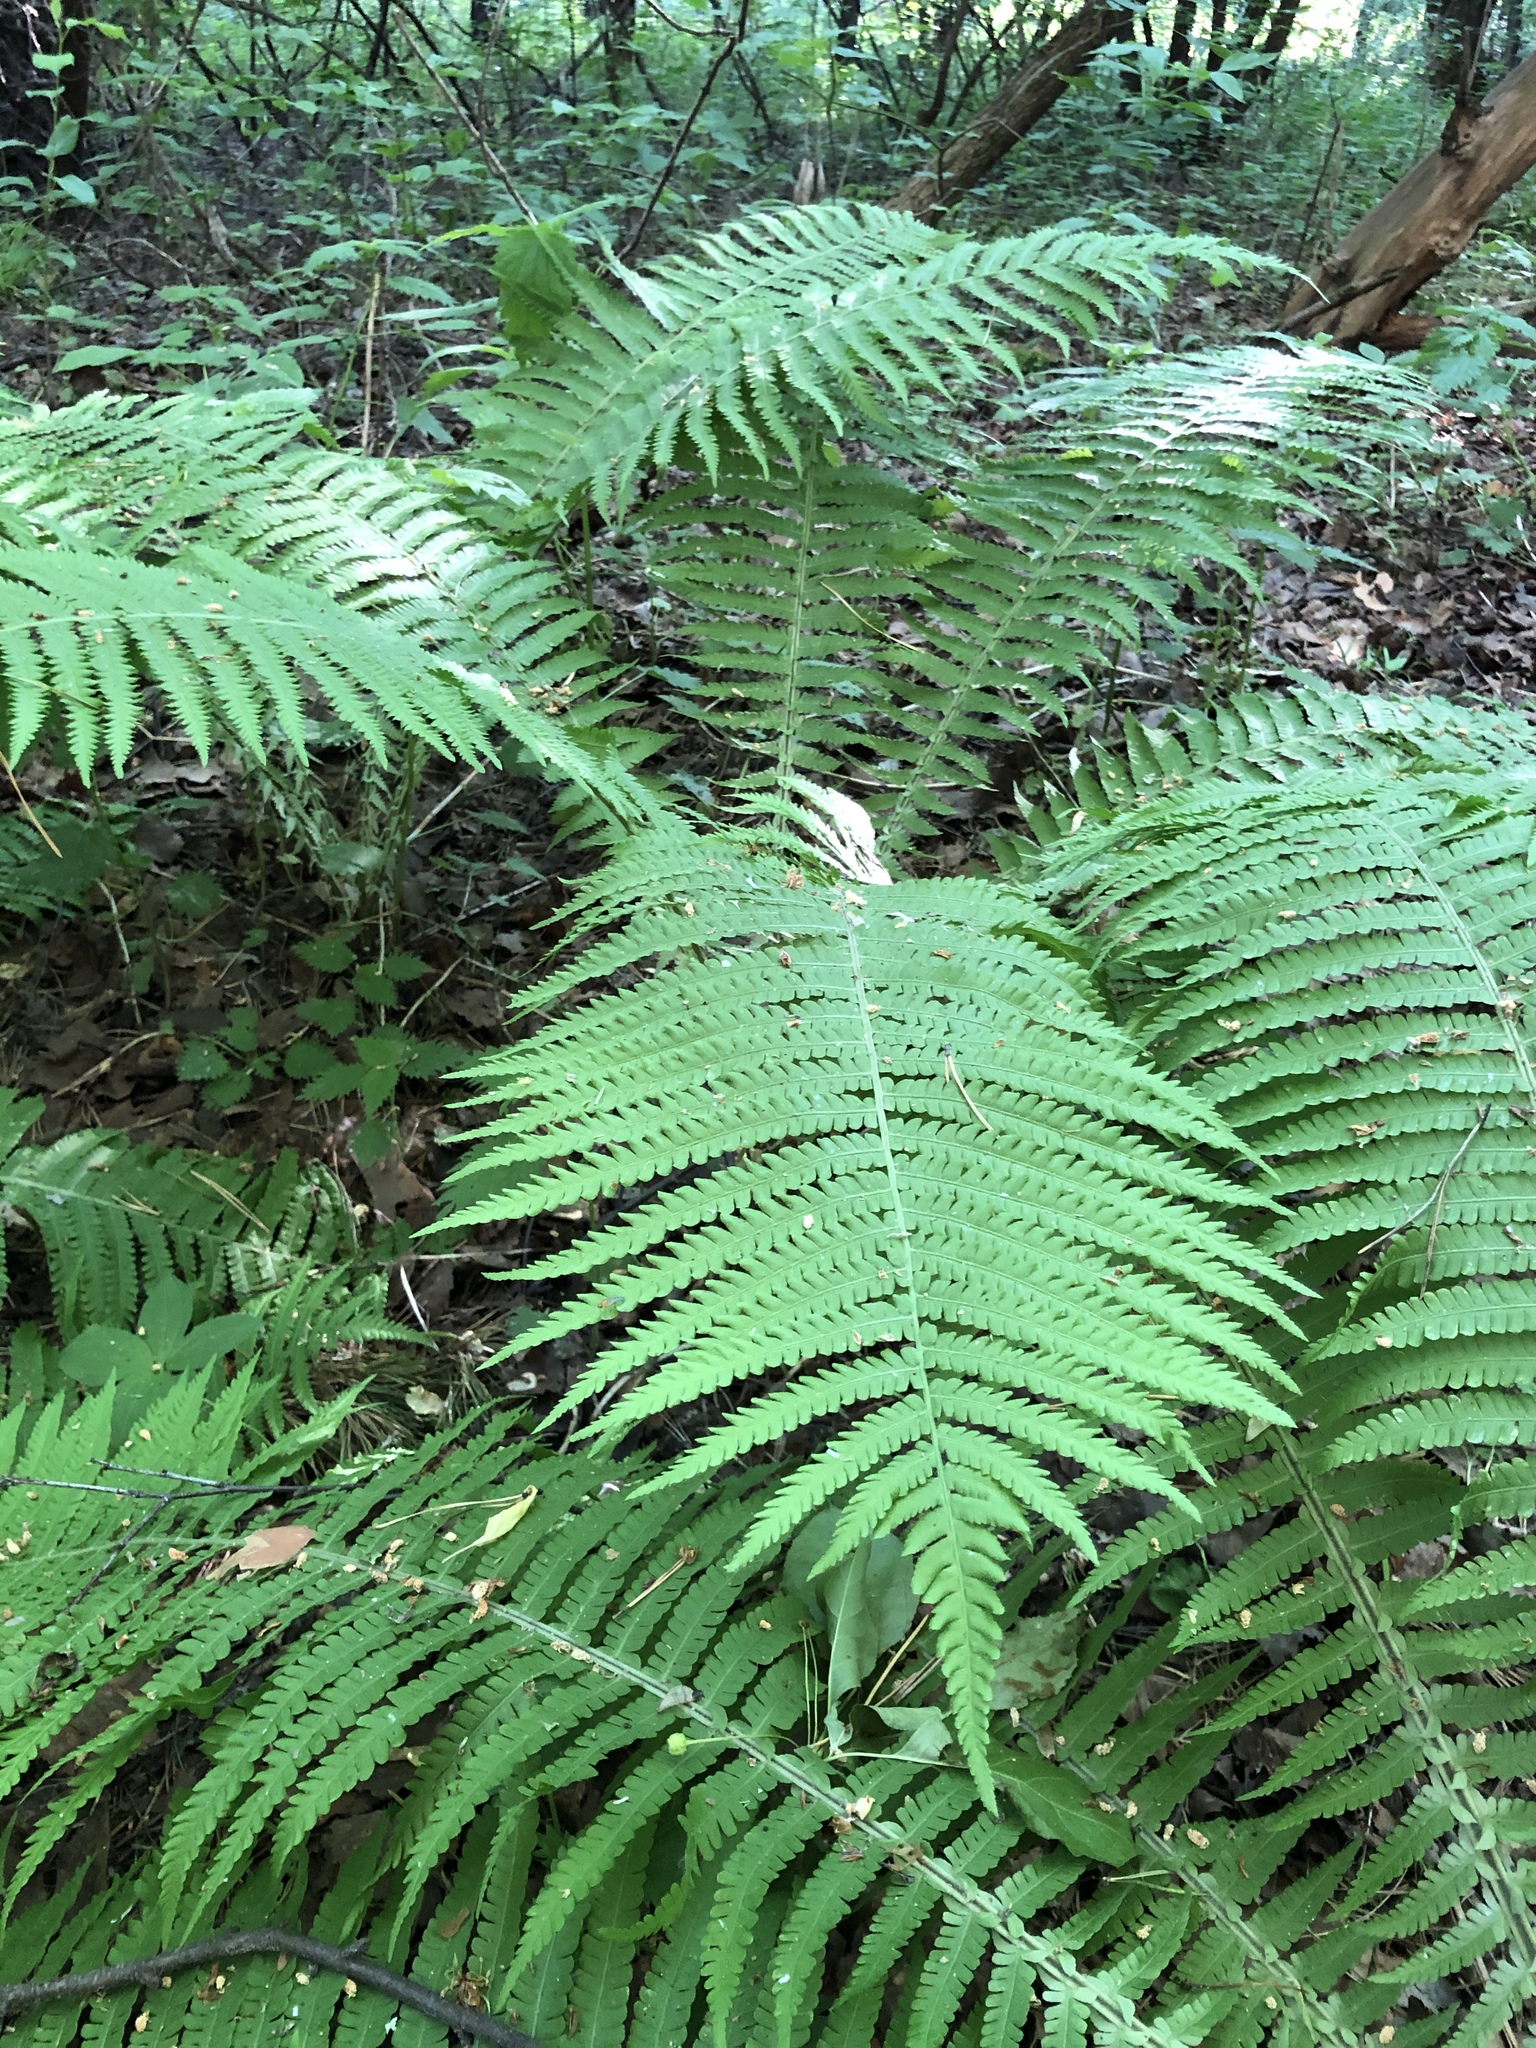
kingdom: Plantae
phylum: Tracheophyta
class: Polypodiopsida
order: Polypodiales
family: Onocleaceae
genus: Matteuccia
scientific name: Matteuccia struthiopteris
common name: Ostrich fern
